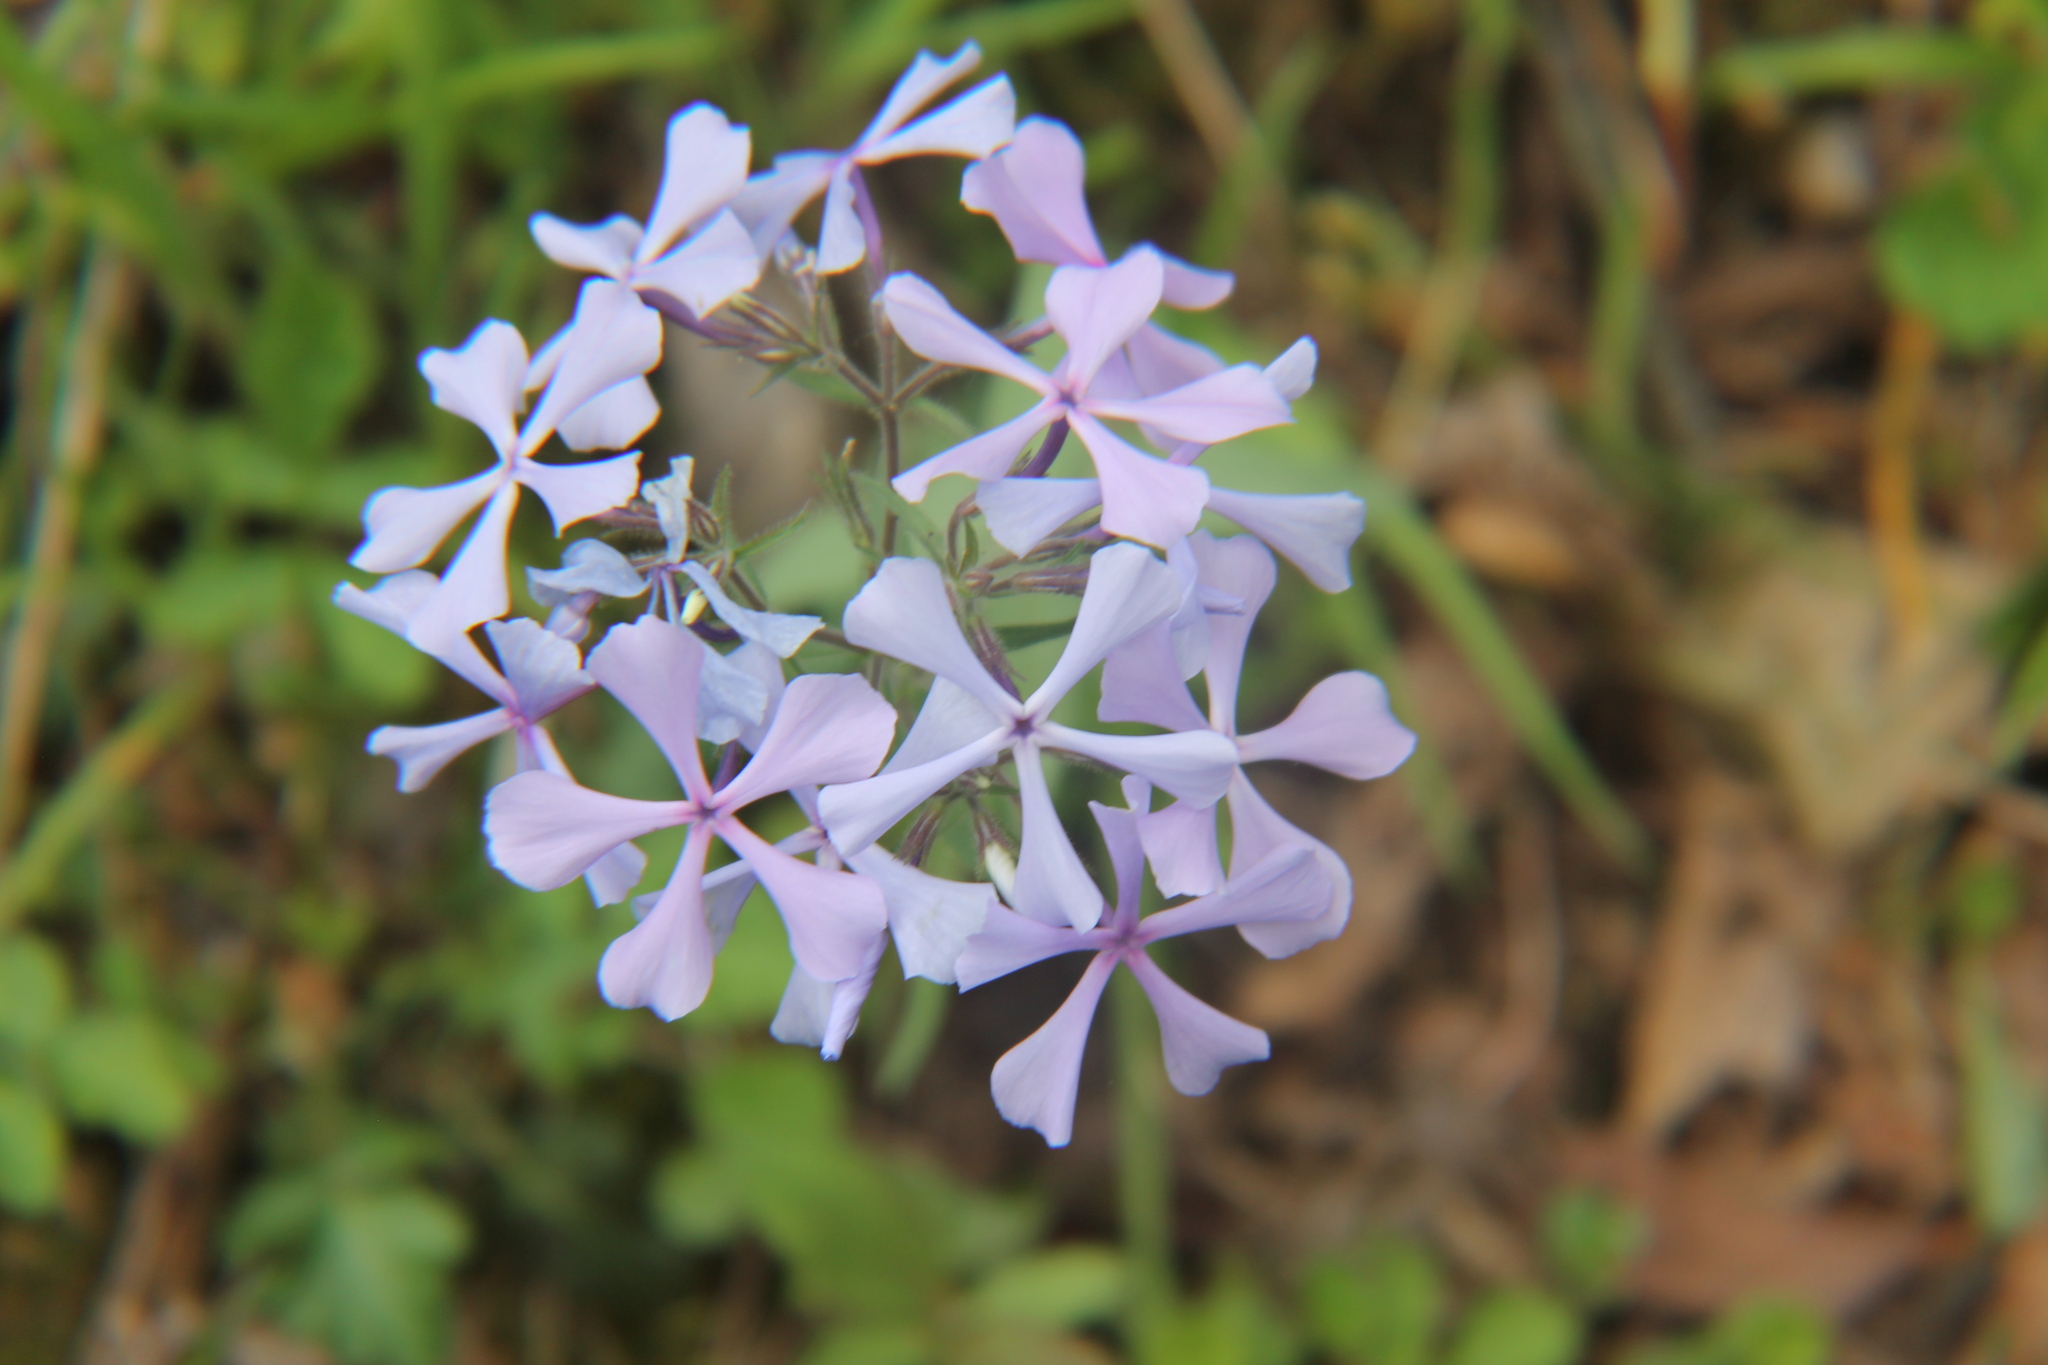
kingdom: Plantae
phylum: Tracheophyta
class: Magnoliopsida
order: Ericales
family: Polemoniaceae
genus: Phlox
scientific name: Phlox divaricata
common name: Blue phlox
